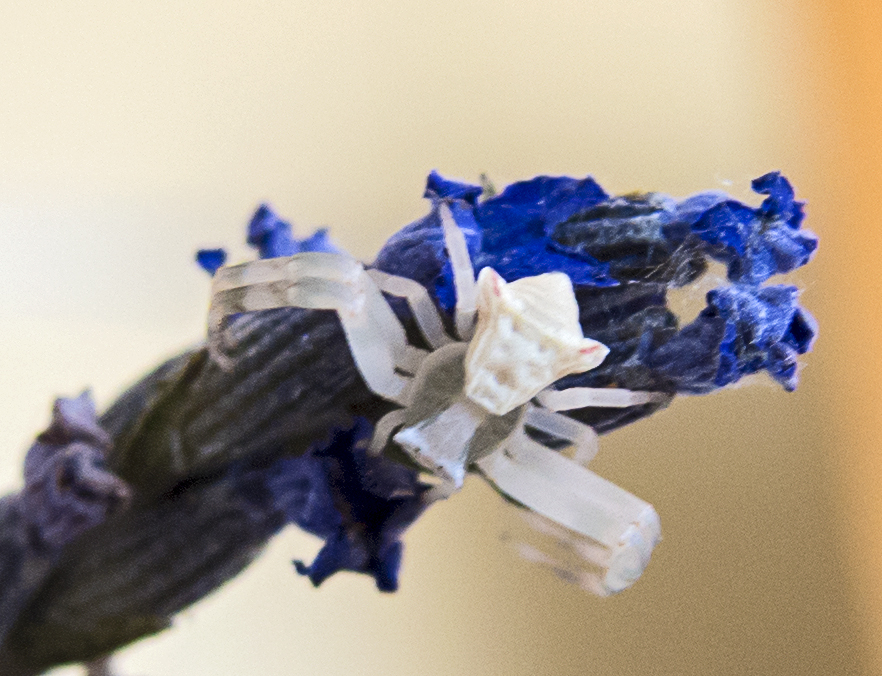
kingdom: Animalia
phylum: Arthropoda
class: Arachnida
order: Araneae
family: Thomisidae
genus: Thomisus
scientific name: Thomisus onustus
